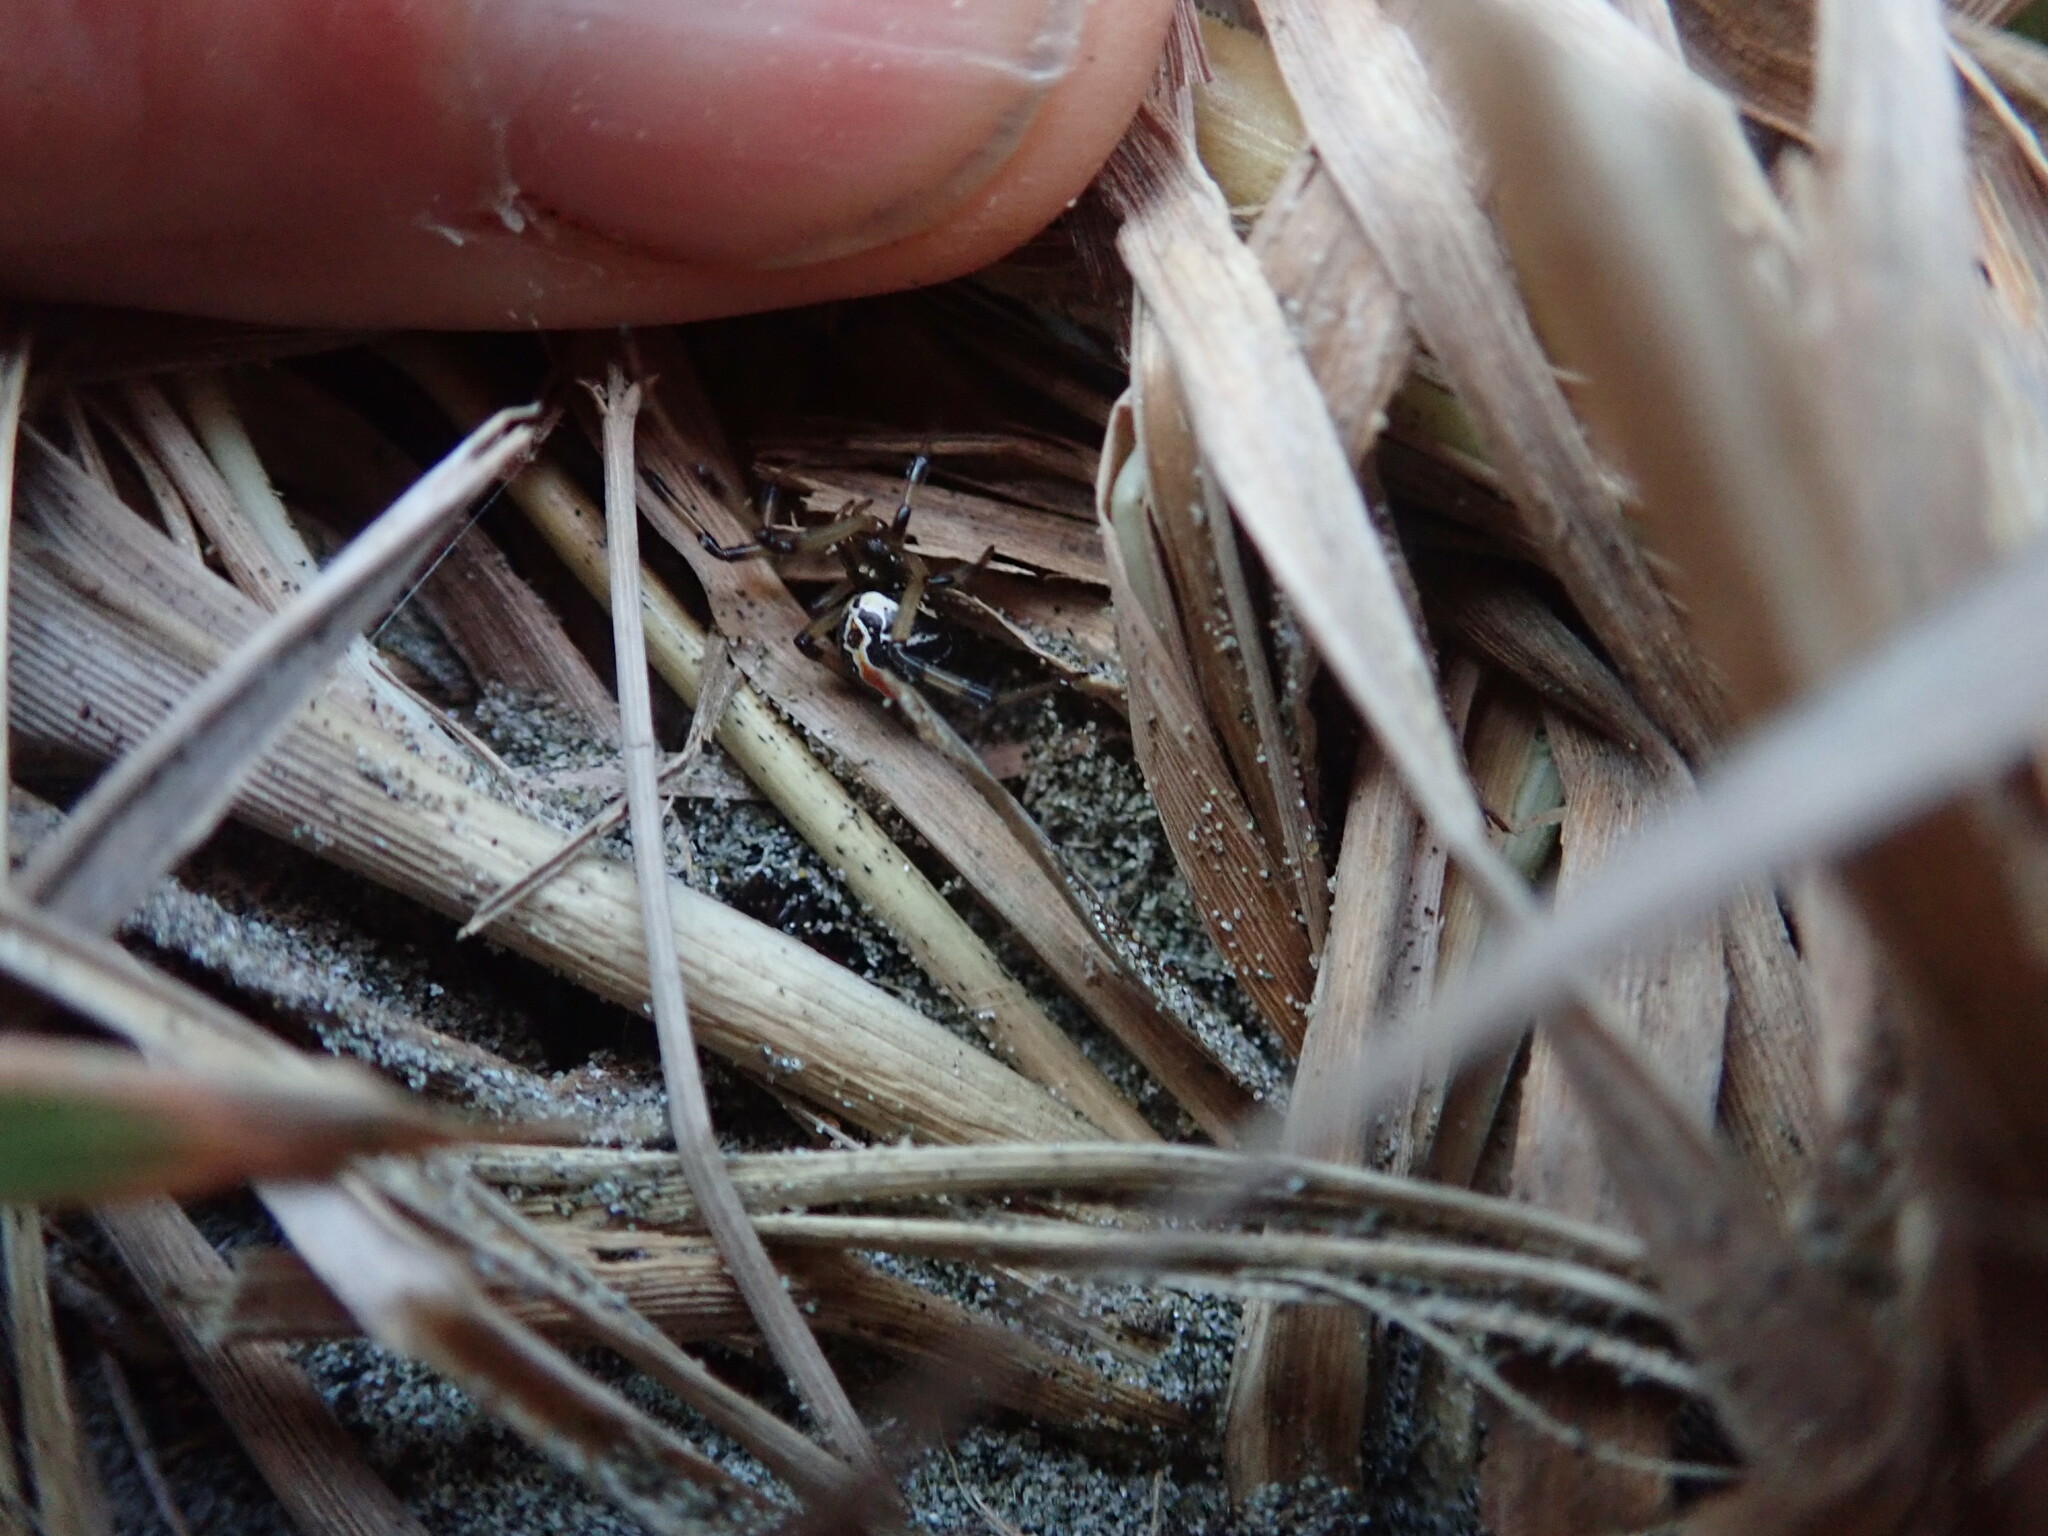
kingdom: Animalia
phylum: Arthropoda
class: Arachnida
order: Araneae
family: Theridiidae
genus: Latrodectus
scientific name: Latrodectus katipo
